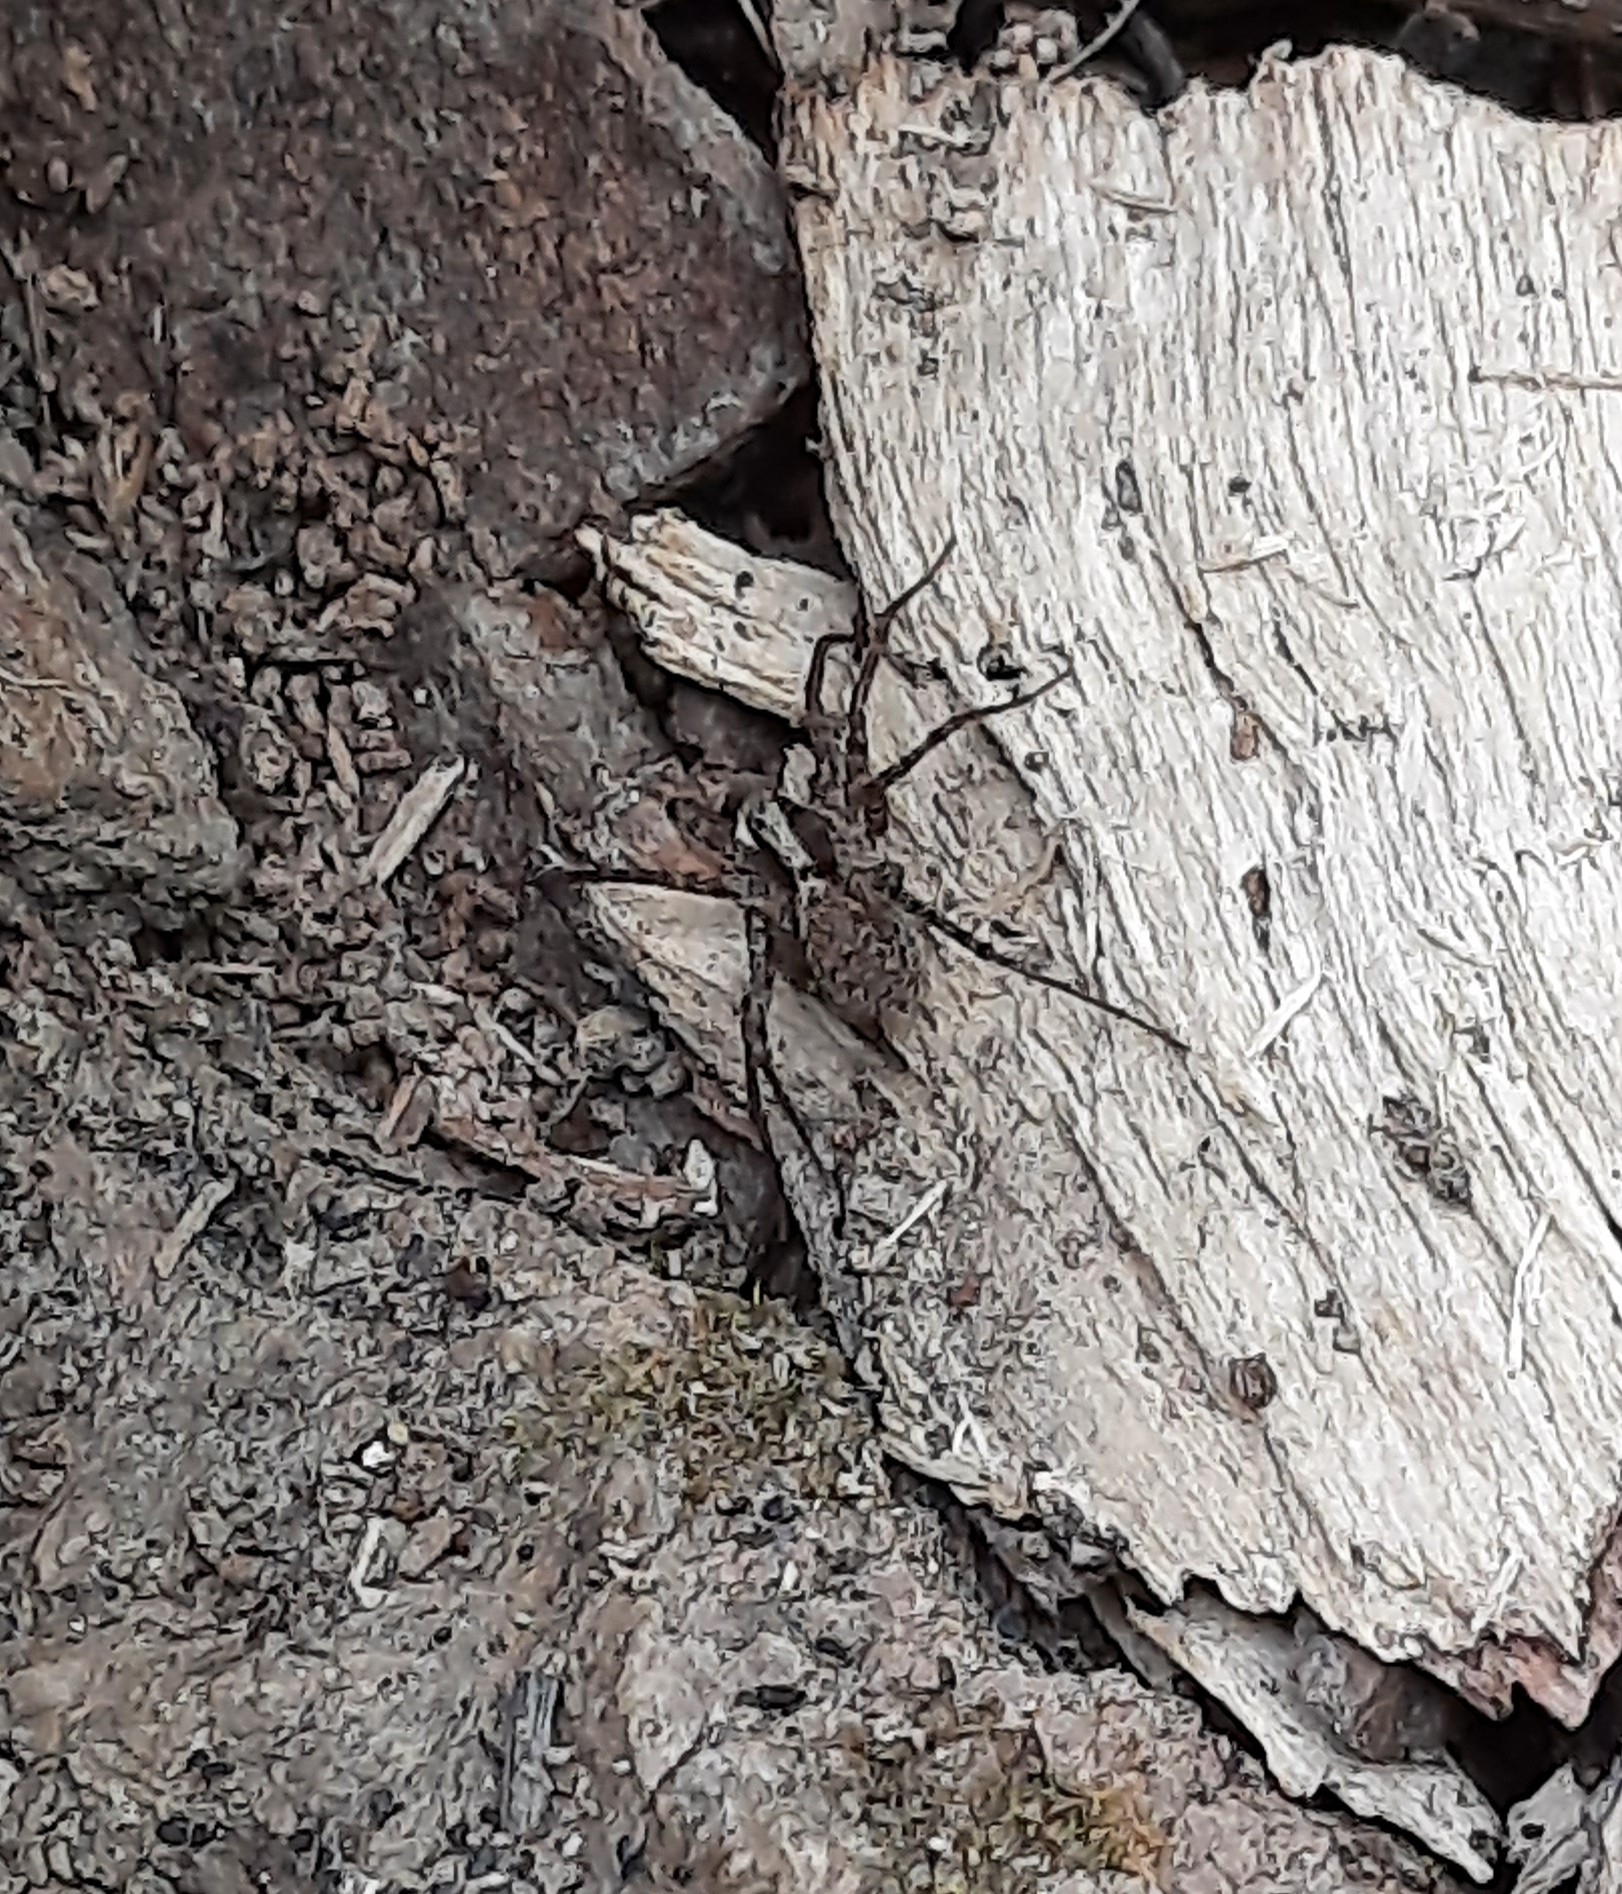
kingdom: Animalia
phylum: Arthropoda
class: Arachnida
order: Araneae
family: Lycosidae
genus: Pardosa
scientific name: Pardosa
